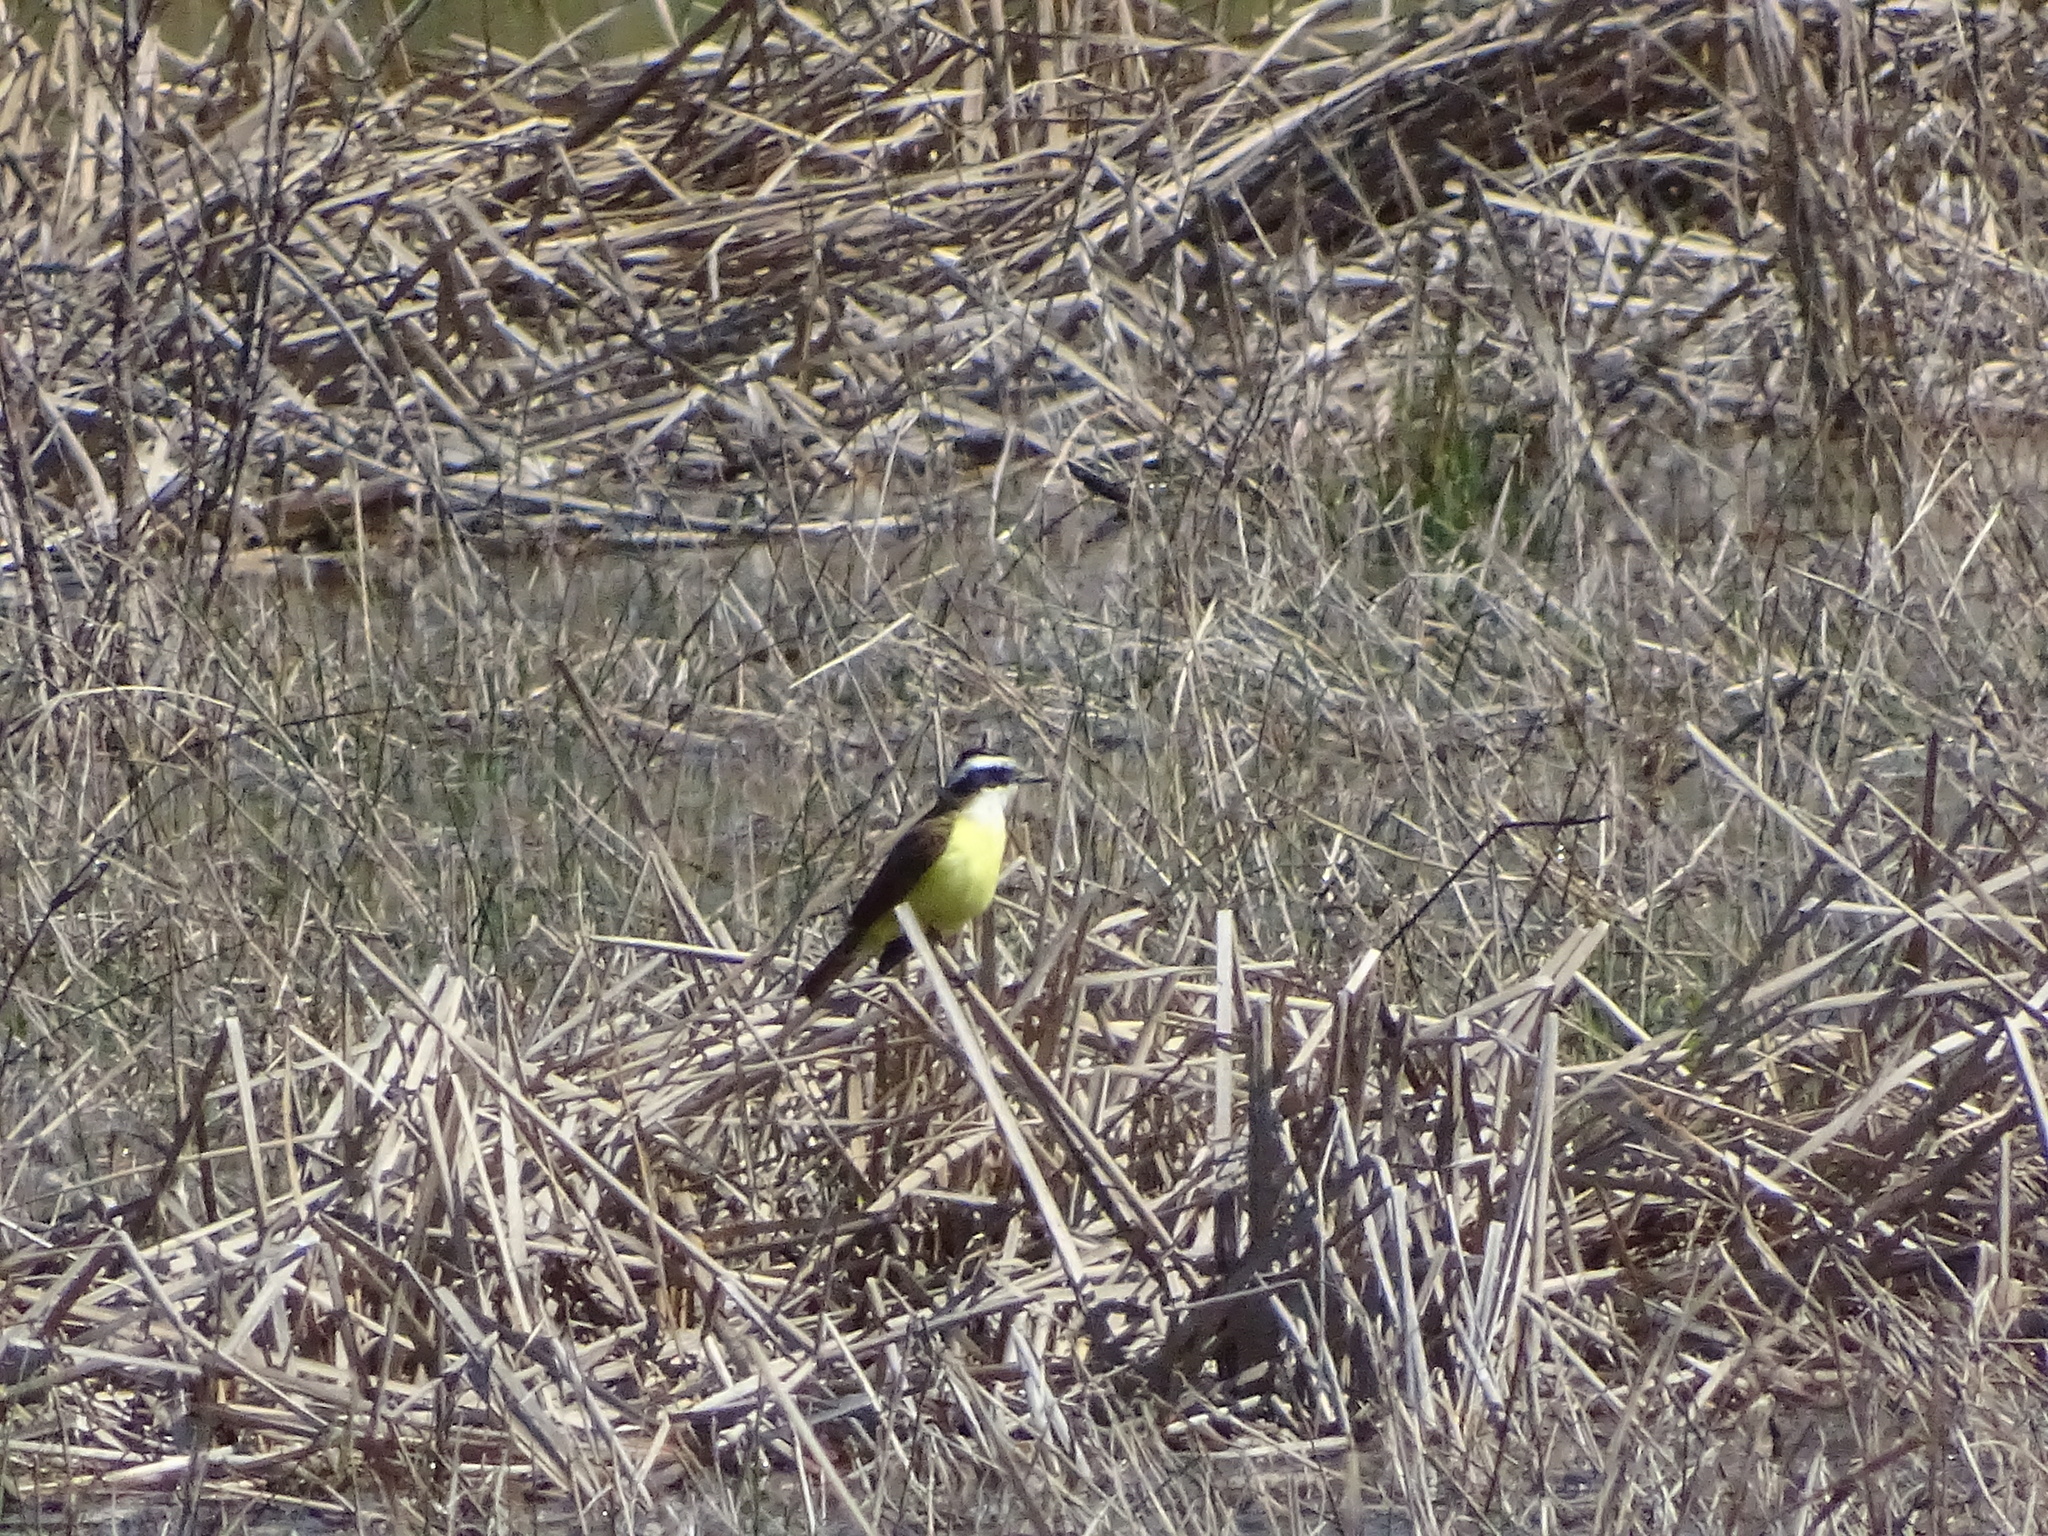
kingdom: Animalia
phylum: Chordata
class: Aves
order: Passeriformes
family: Tyrannidae
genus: Pitangus
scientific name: Pitangus sulphuratus
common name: Great kiskadee
